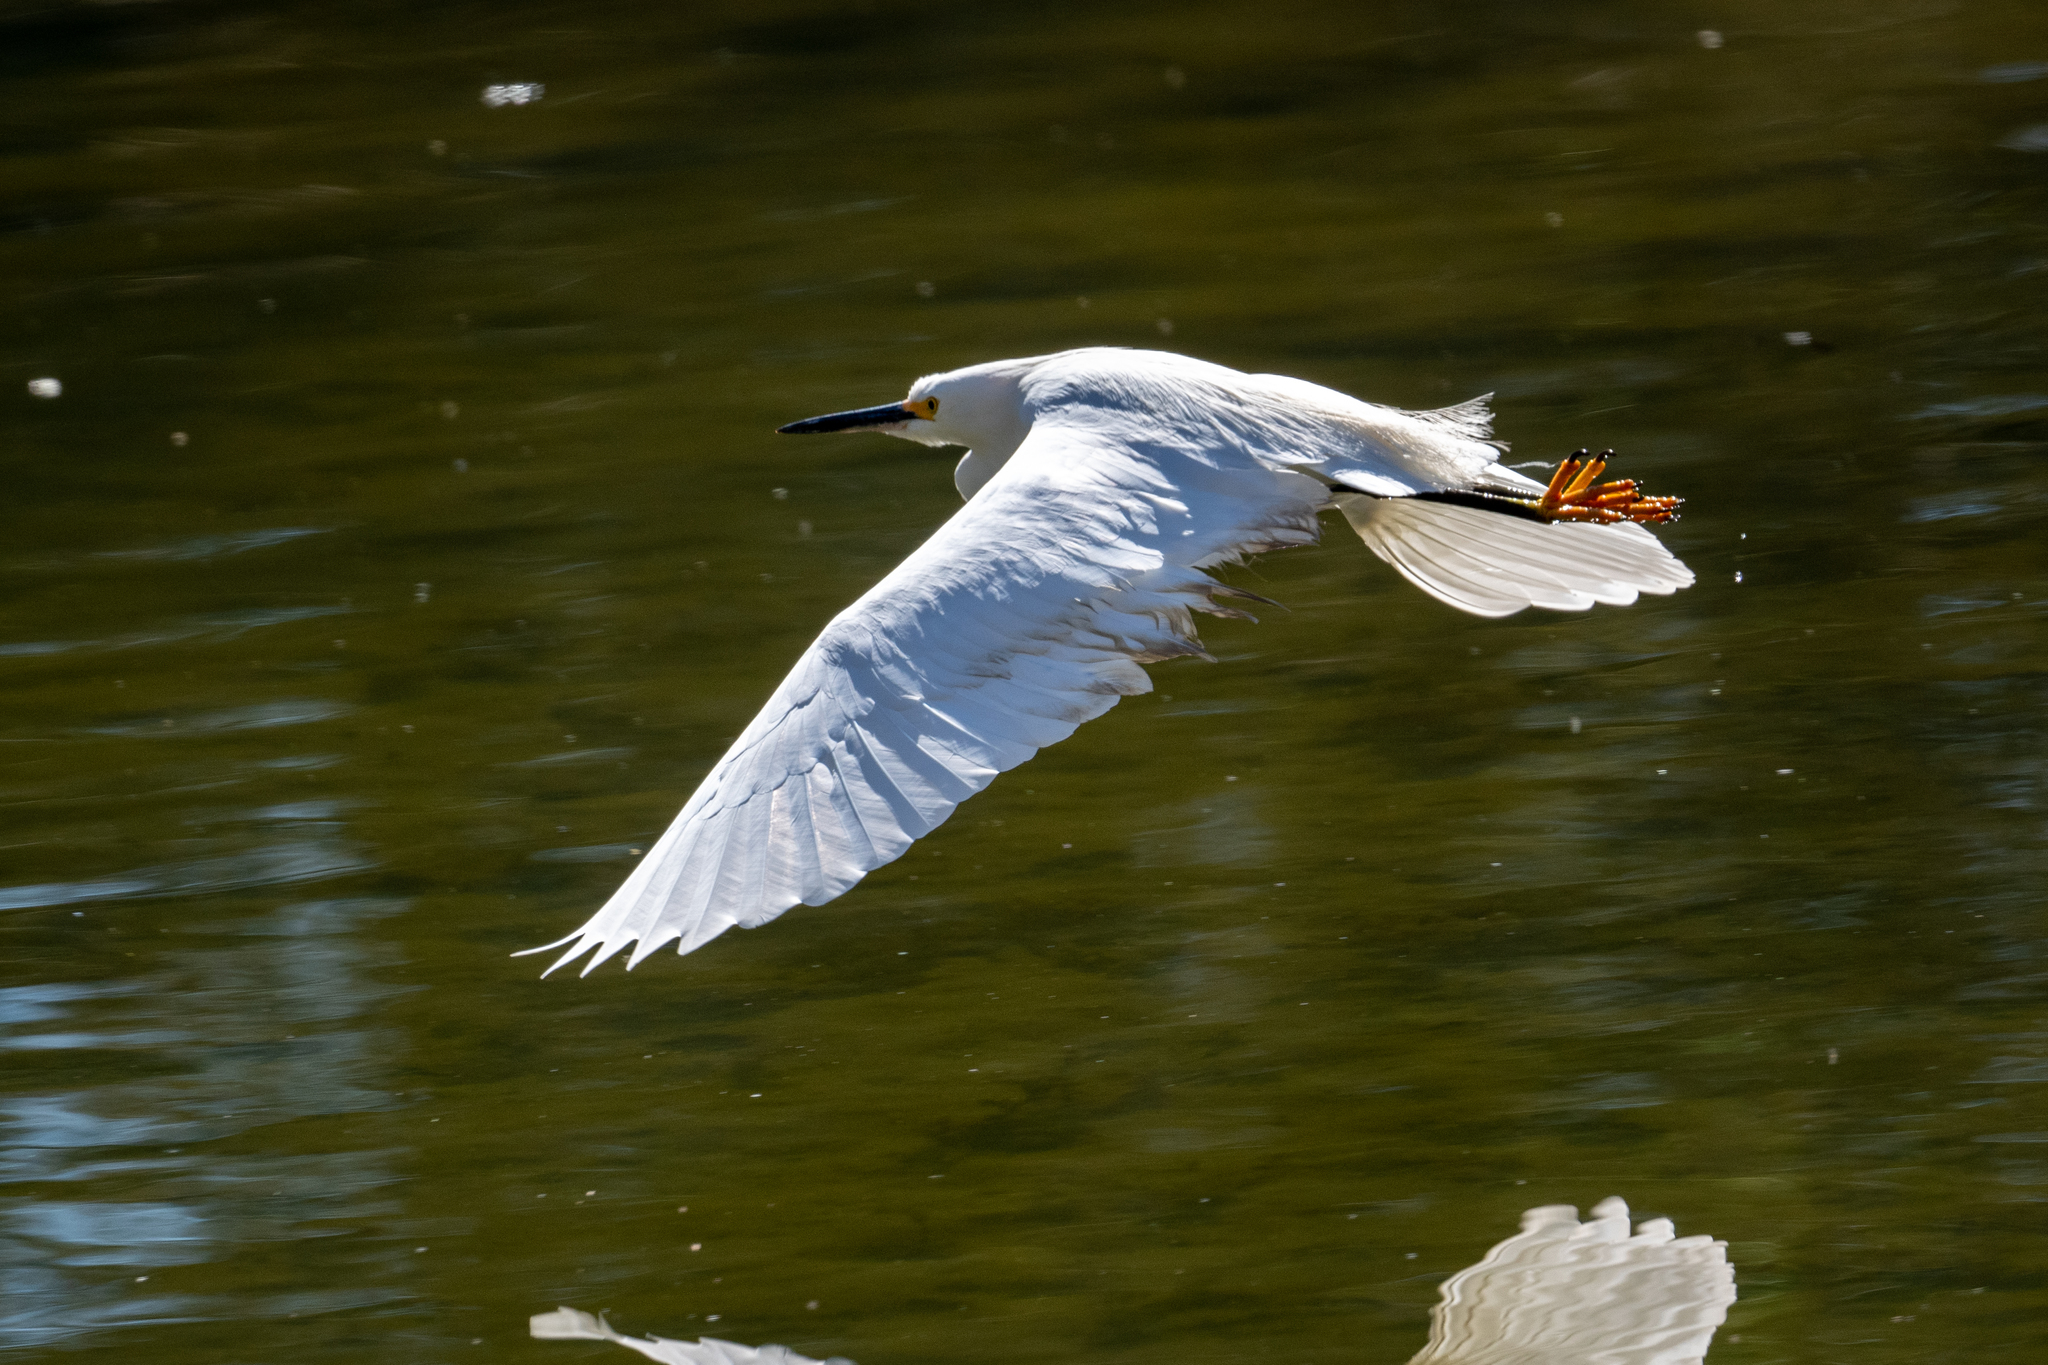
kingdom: Animalia
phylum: Chordata
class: Aves
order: Pelecaniformes
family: Ardeidae
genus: Egretta
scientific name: Egretta thula
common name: Snowy egret
